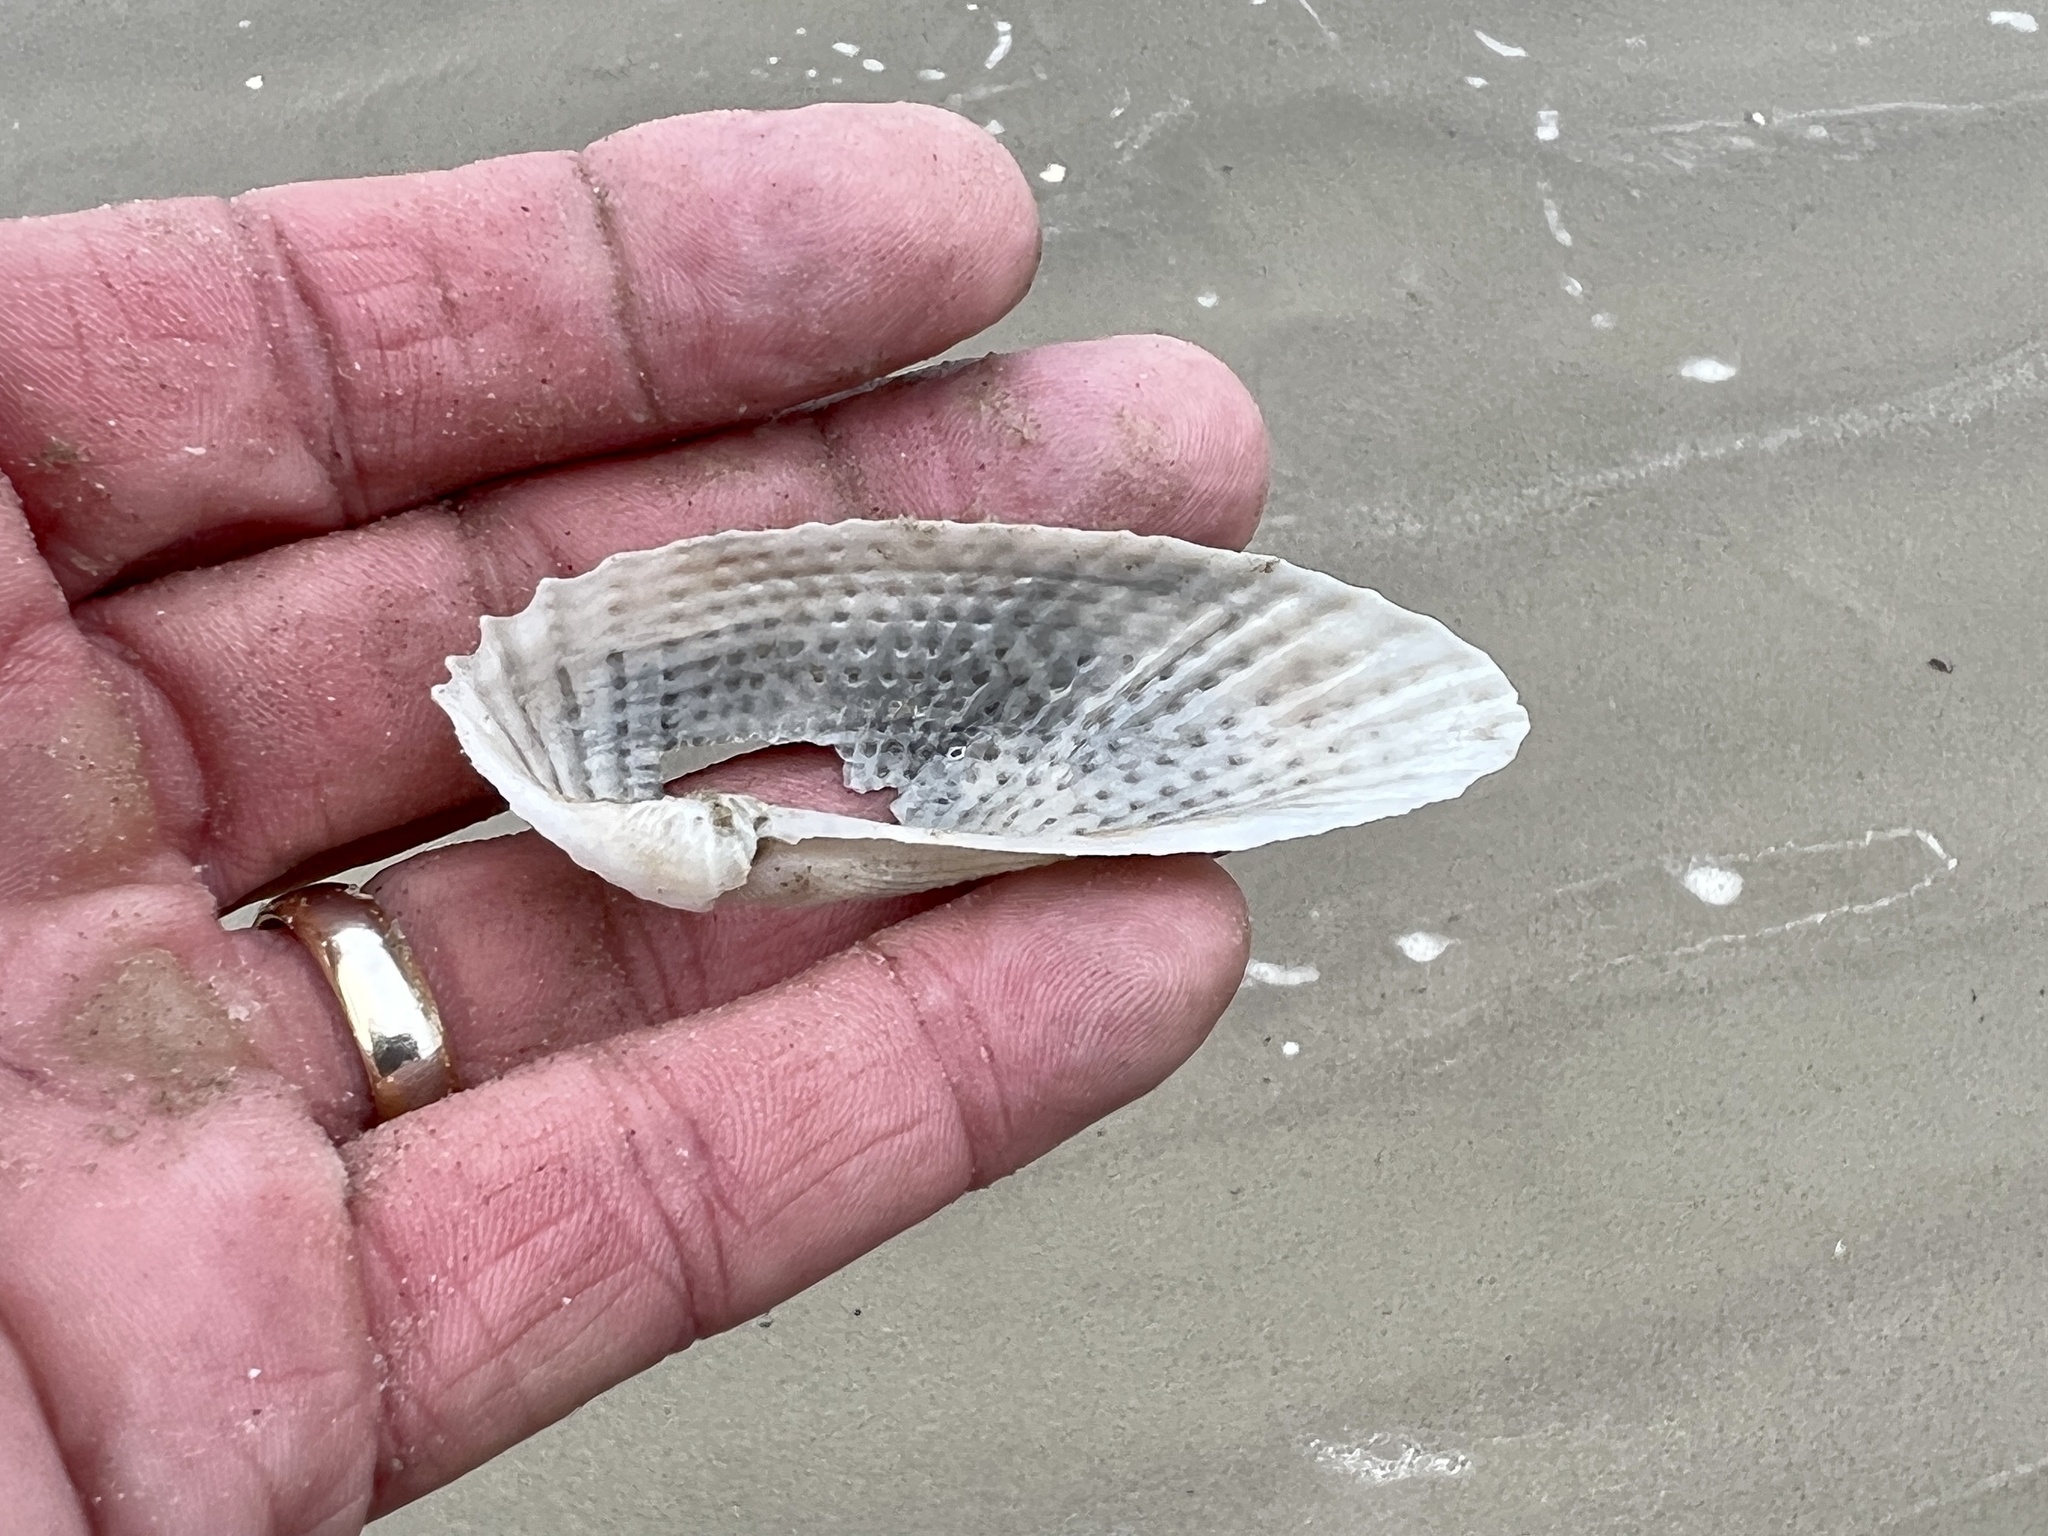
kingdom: Animalia
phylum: Mollusca
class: Bivalvia
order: Myida
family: Pholadidae
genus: Cyrtopleura
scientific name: Cyrtopleura costata
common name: Angel wing
